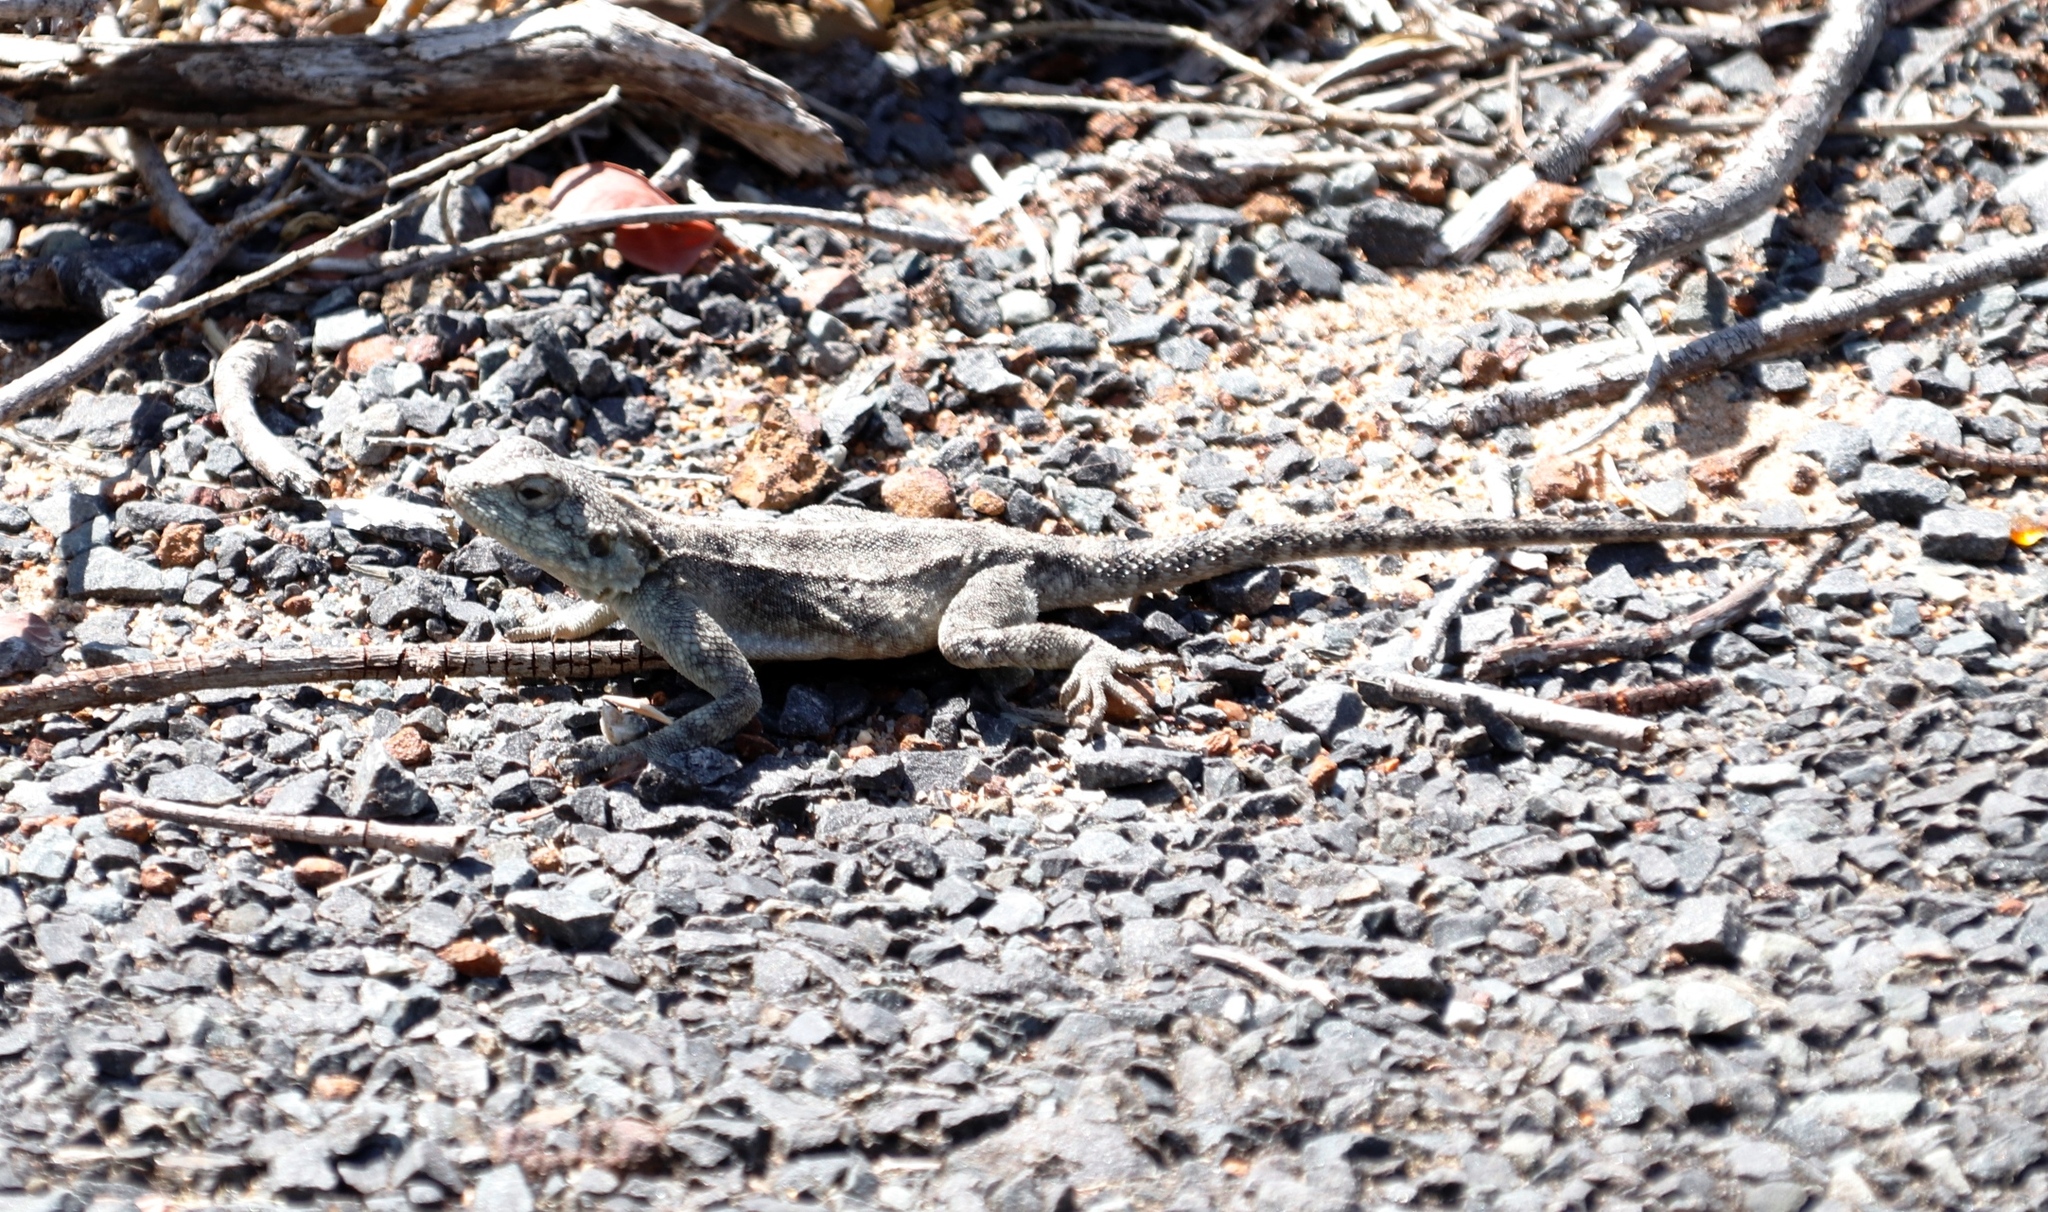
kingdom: Animalia
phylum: Chordata
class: Squamata
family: Agamidae
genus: Agama
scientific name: Agama atra
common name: Southern african rock agama
